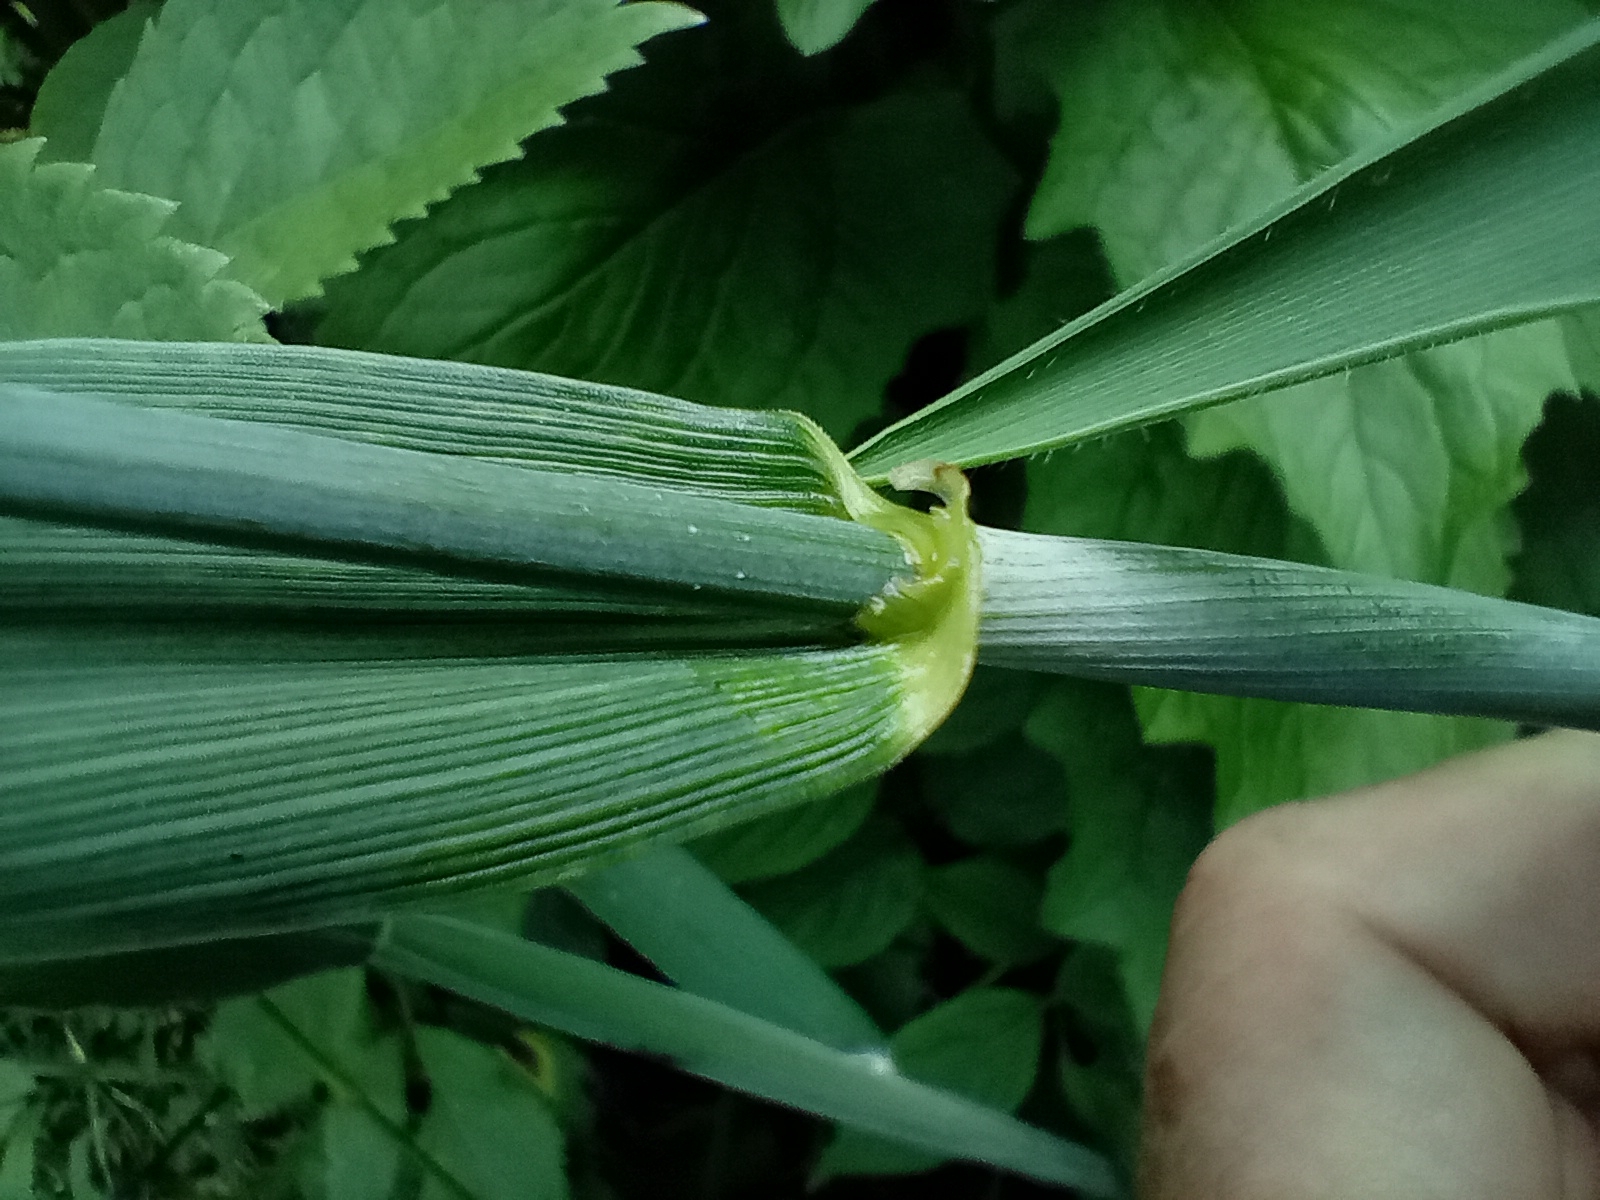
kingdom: Plantae
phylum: Tracheophyta
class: Liliopsida
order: Poales
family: Poaceae
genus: Triticum
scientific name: Triticum aestivum
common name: Common wheat
